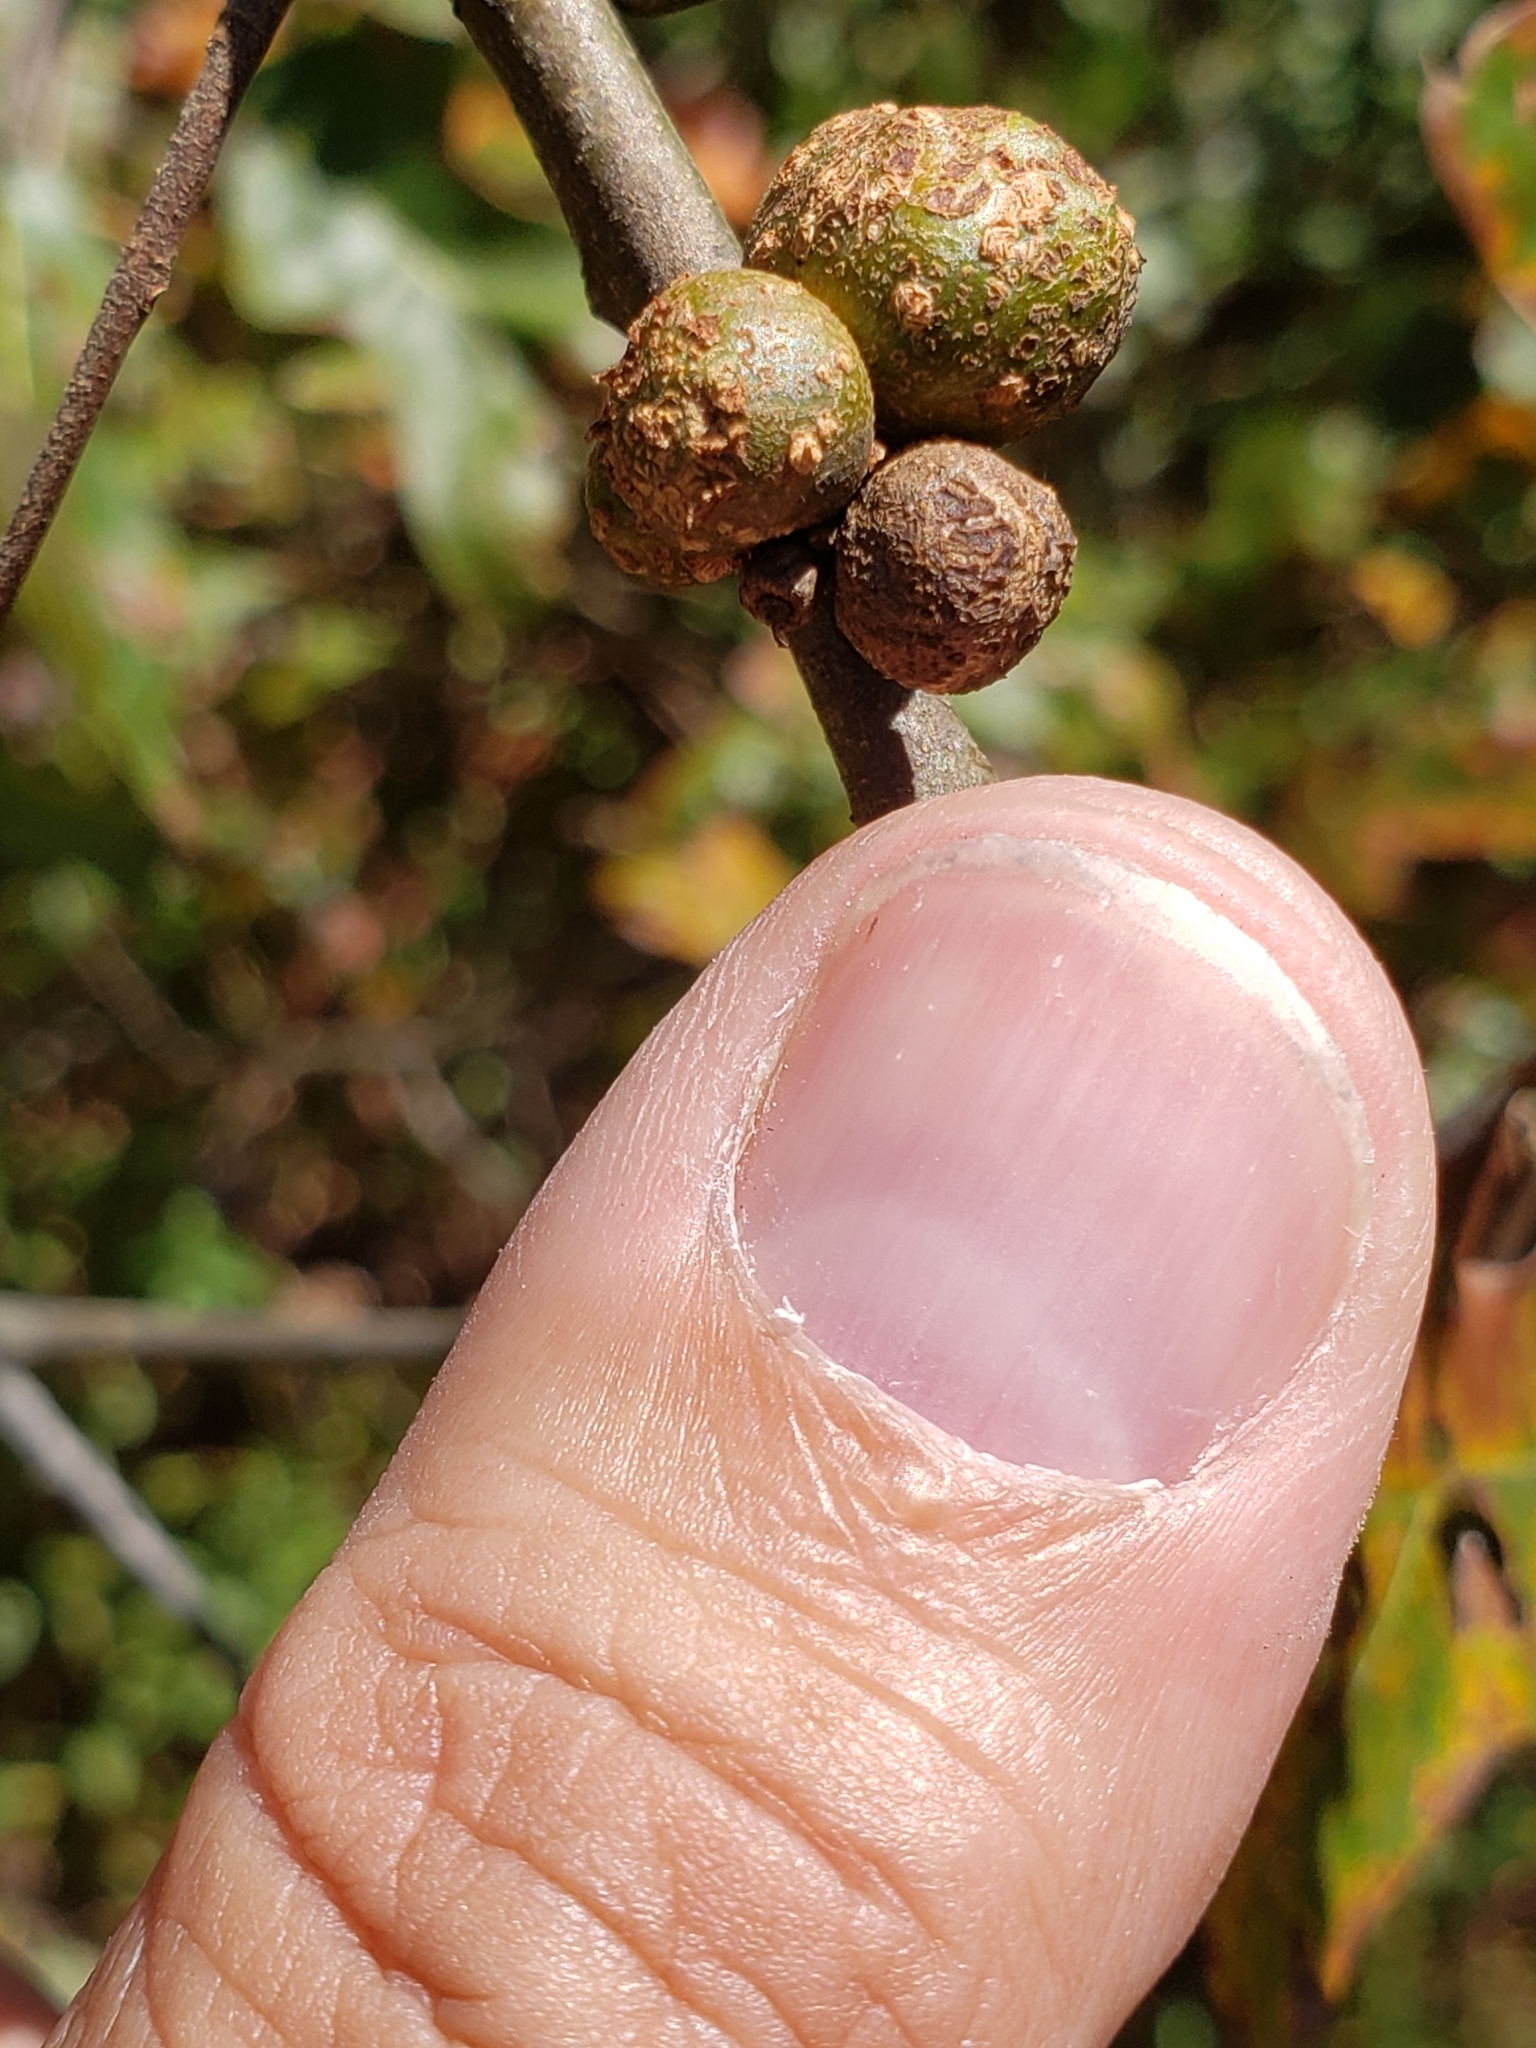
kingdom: Animalia
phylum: Arthropoda
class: Insecta
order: Hymenoptera
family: Cynipidae
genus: Callirhytis
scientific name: Callirhytis
